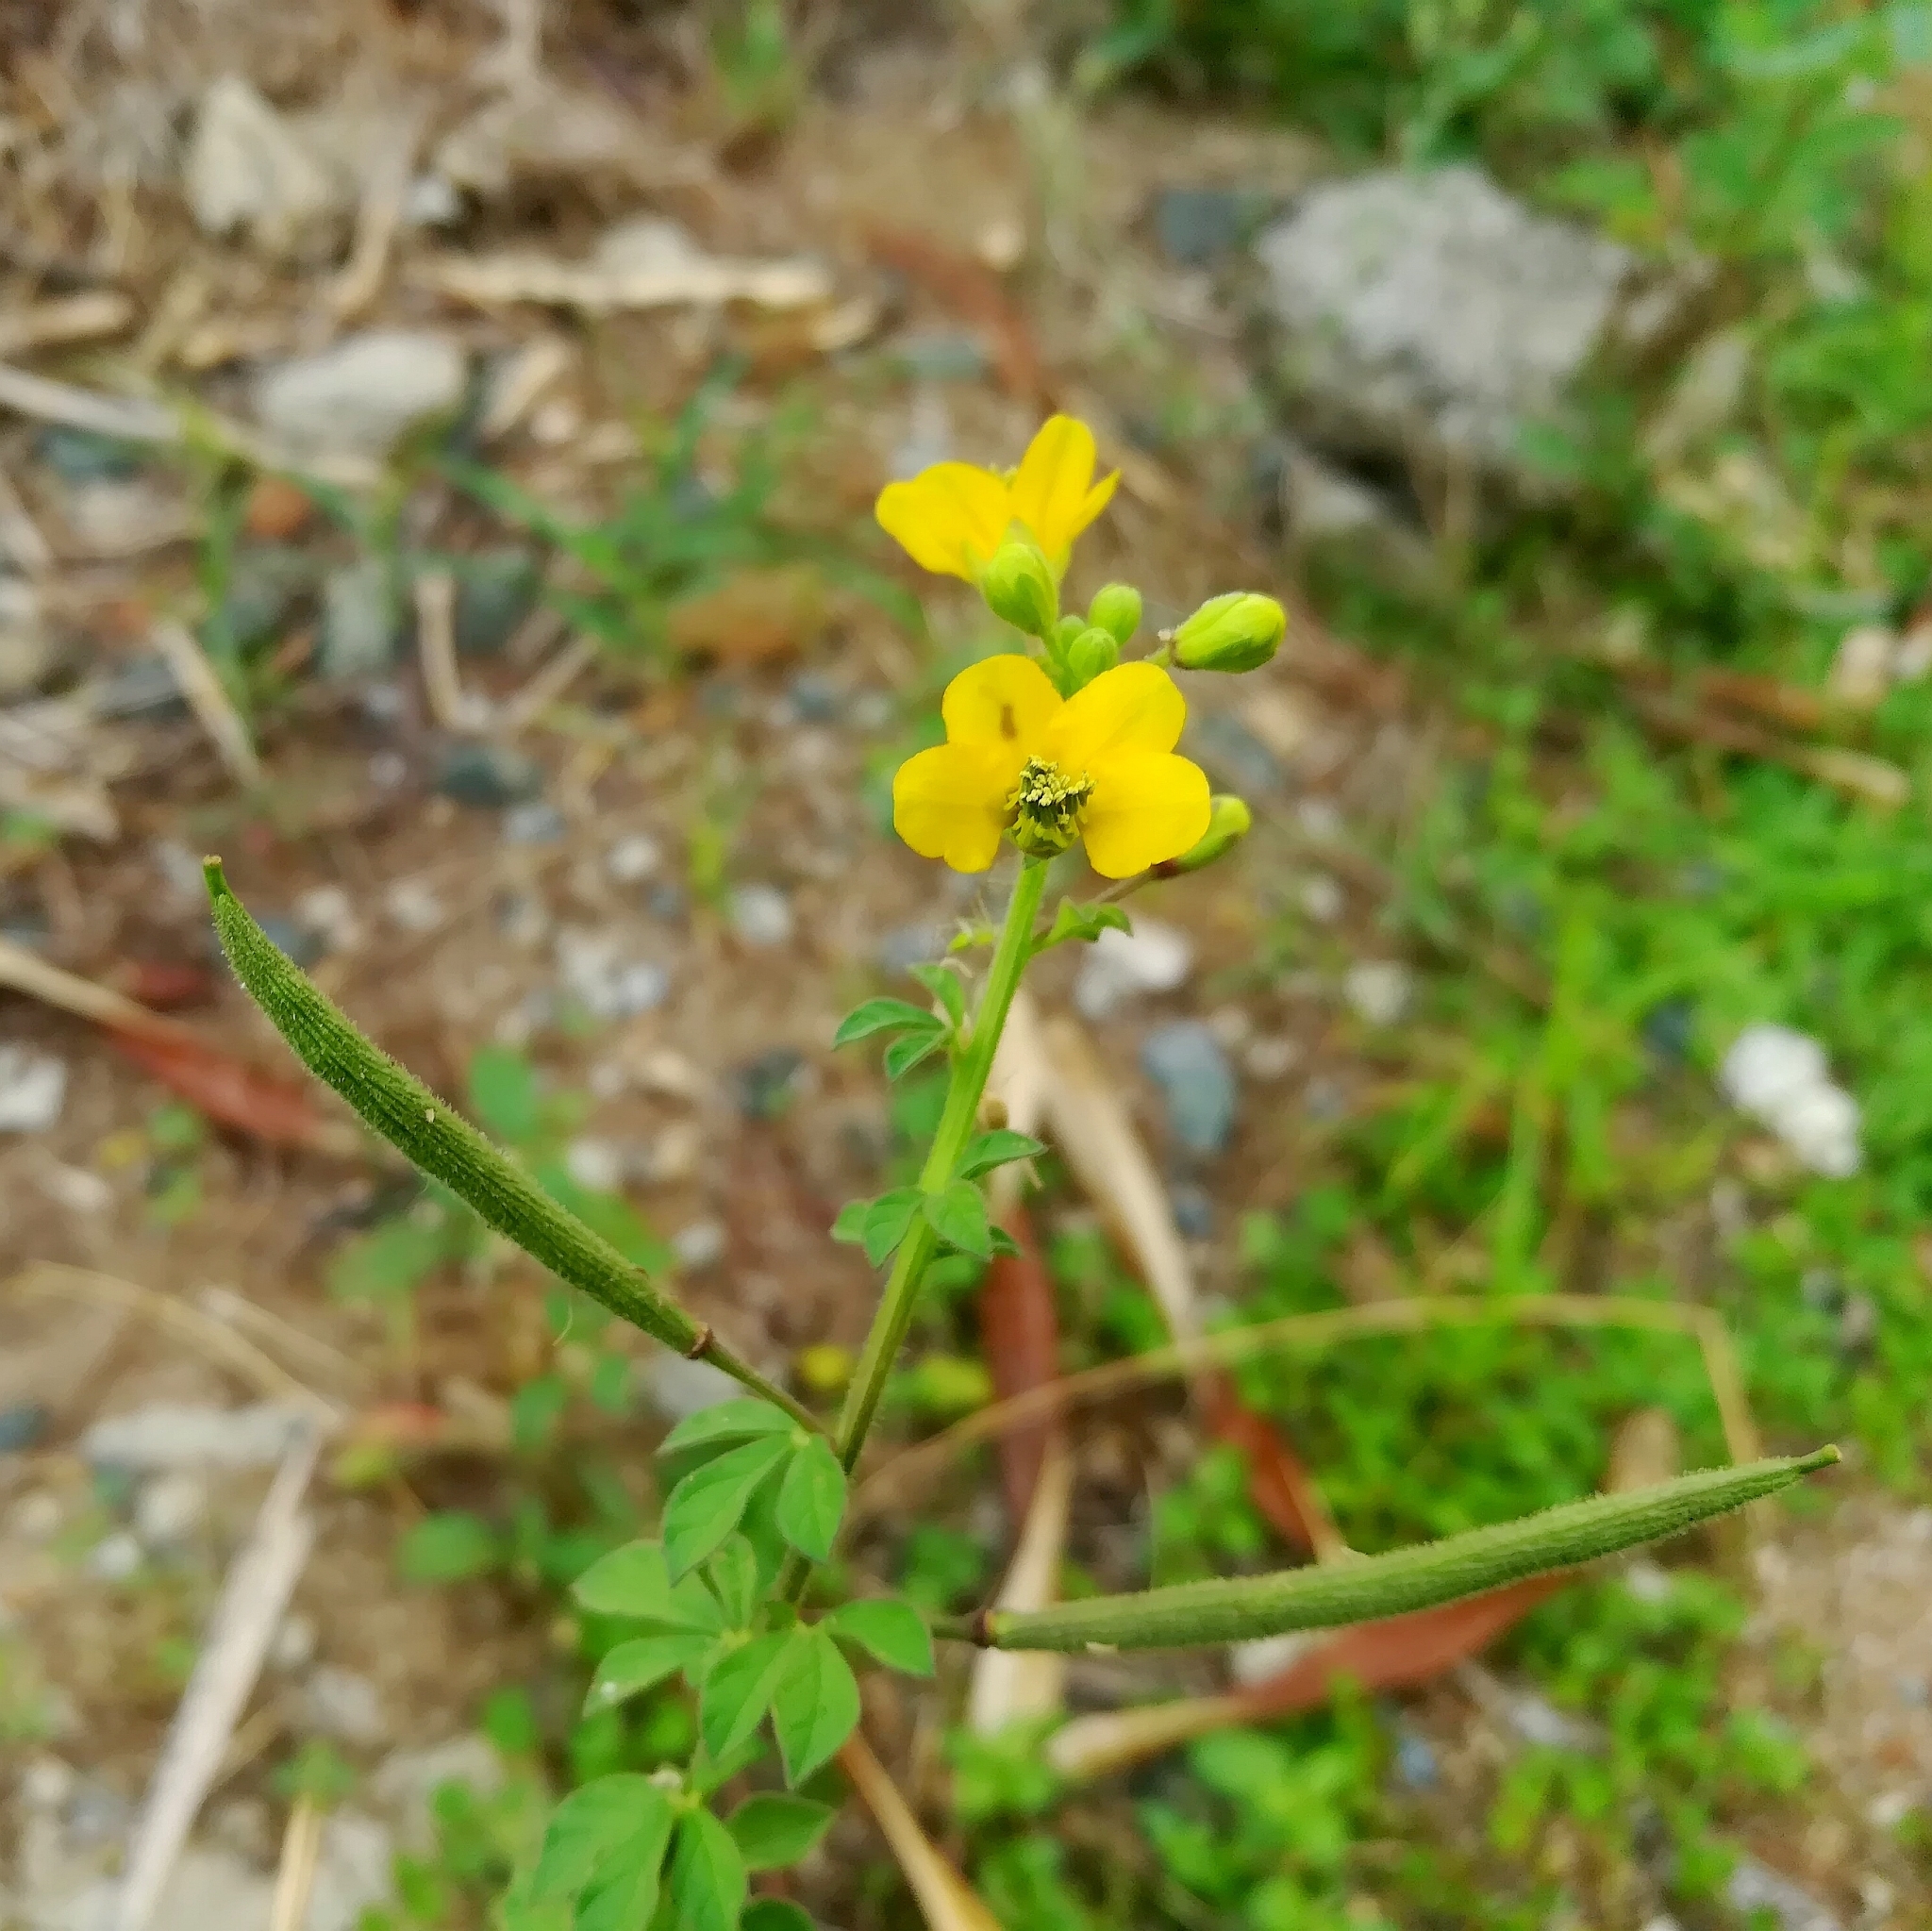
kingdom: Plantae
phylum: Tracheophyta
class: Magnoliopsida
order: Brassicales
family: Cleomaceae
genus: Arivela
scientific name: Arivela viscosa
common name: Asian spiderflower
